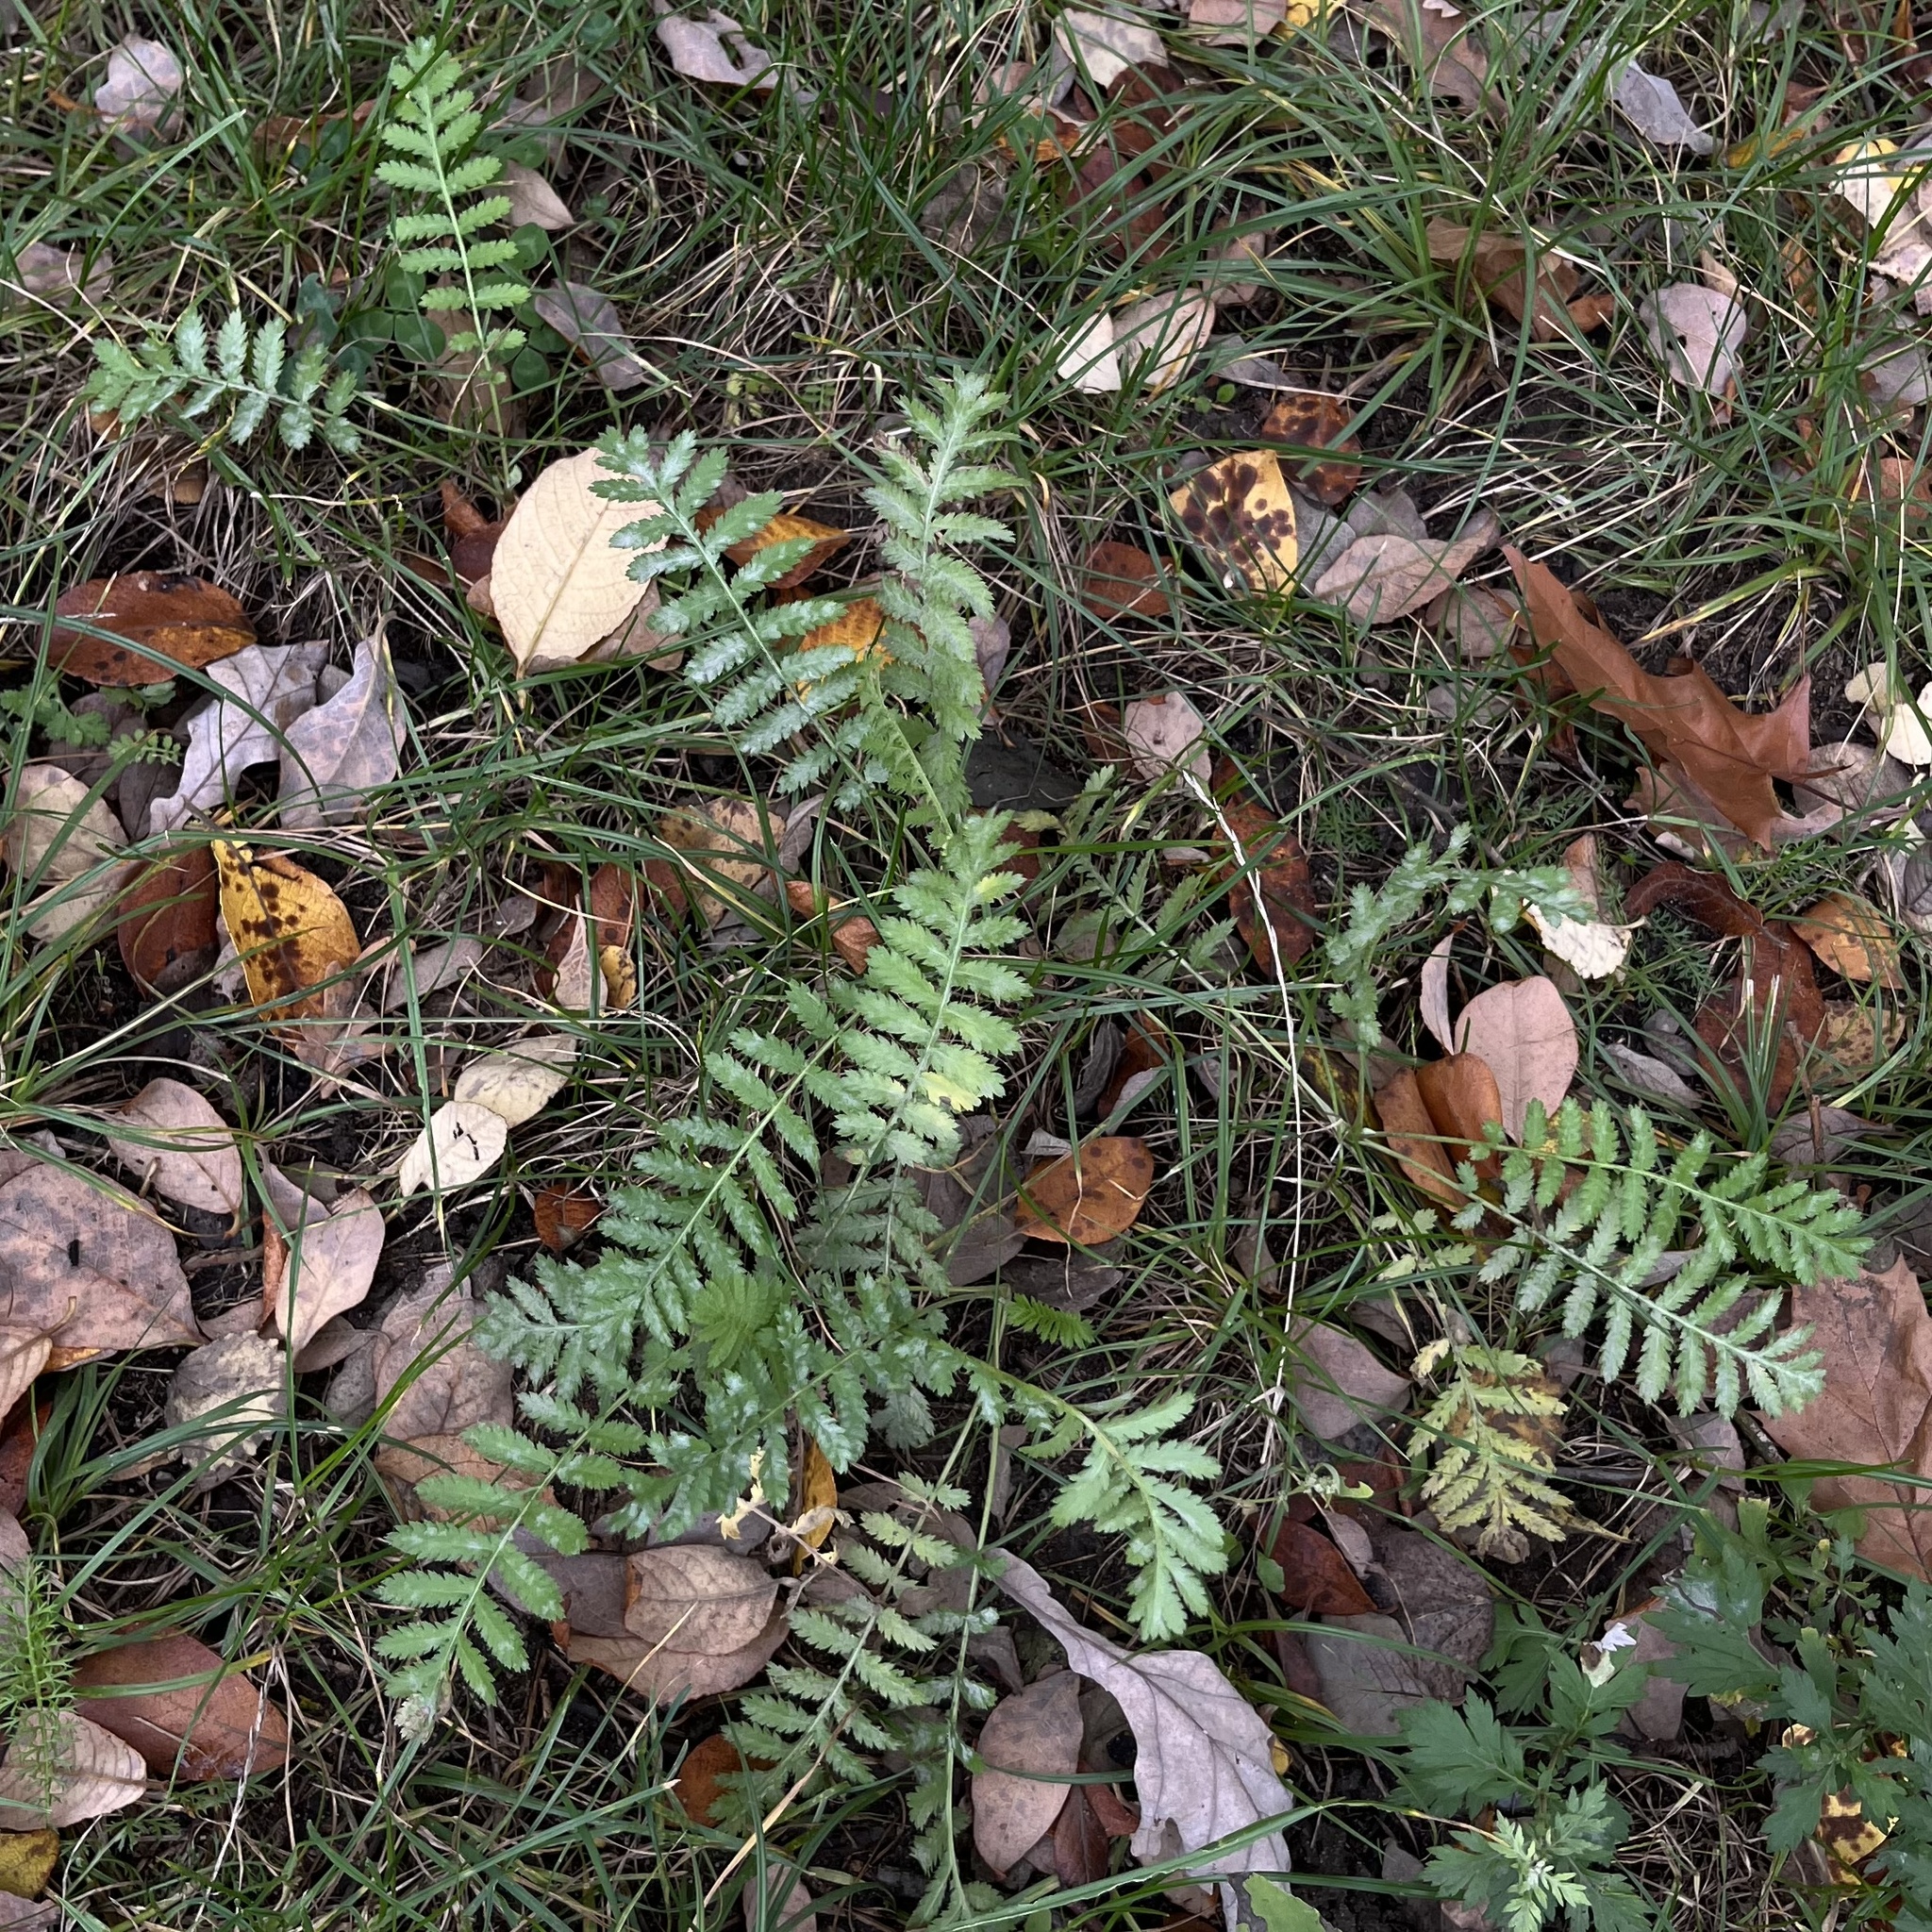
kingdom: Plantae
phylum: Tracheophyta
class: Magnoliopsida
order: Asterales
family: Asteraceae
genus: Tanacetum
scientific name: Tanacetum vulgare
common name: Common tansy
